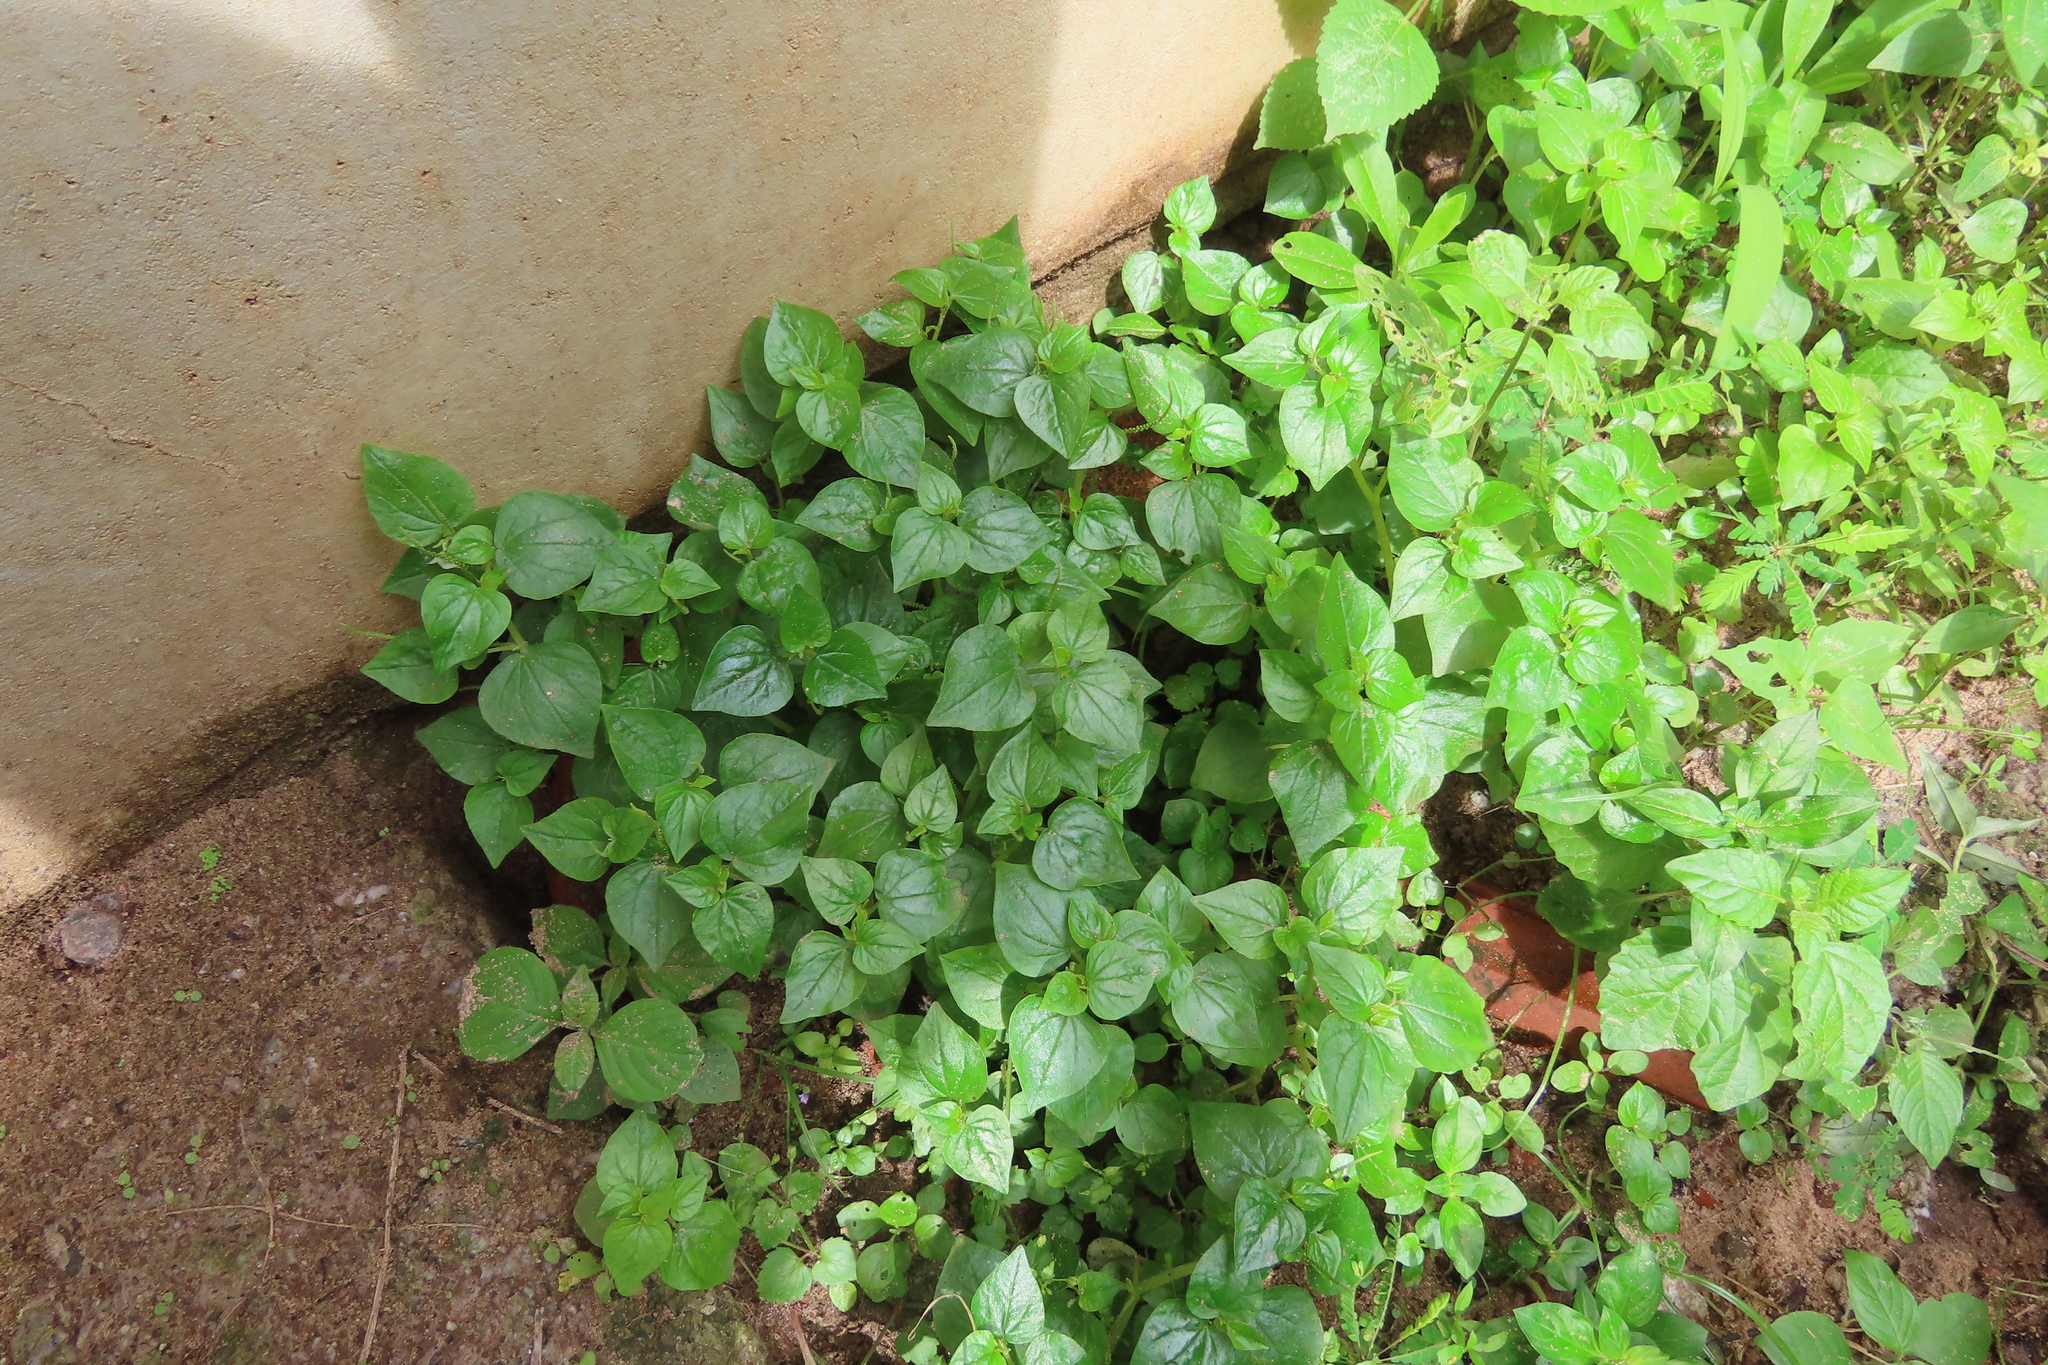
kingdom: Plantae
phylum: Tracheophyta
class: Magnoliopsida
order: Piperales
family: Piperaceae
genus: Peperomia
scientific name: Peperomia pellucida
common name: Man to man
